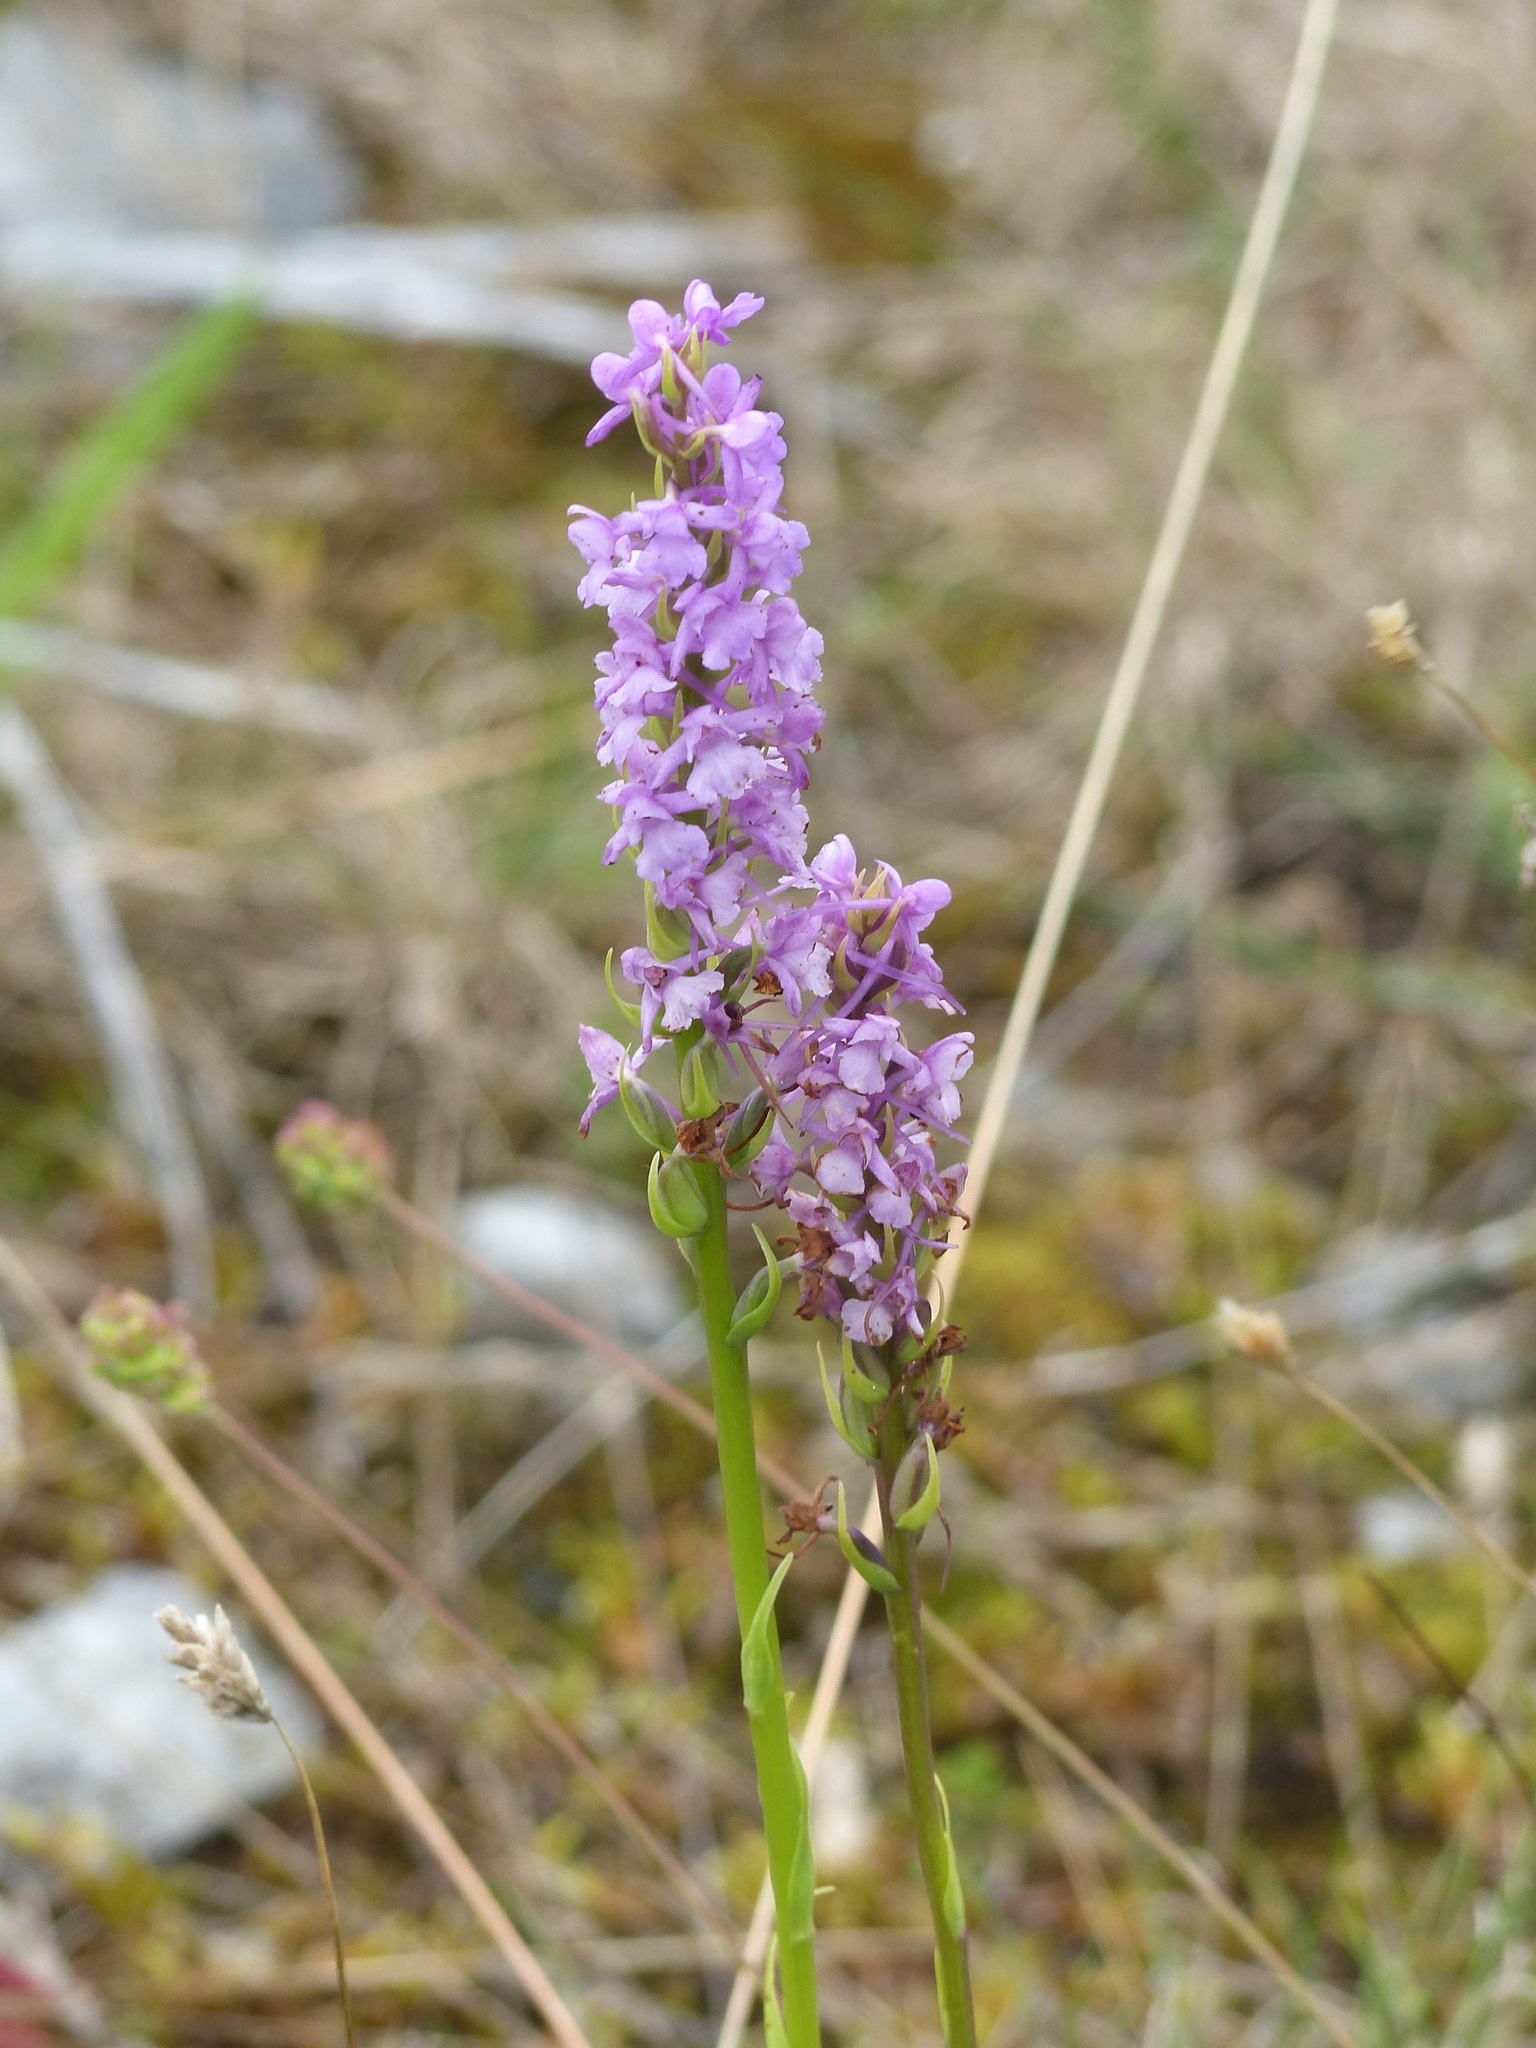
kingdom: Plantae
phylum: Tracheophyta
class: Liliopsida
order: Asparagales
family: Orchidaceae
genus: Gymnadenia
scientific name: Gymnadenia conopsea
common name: Fragrant orchid
